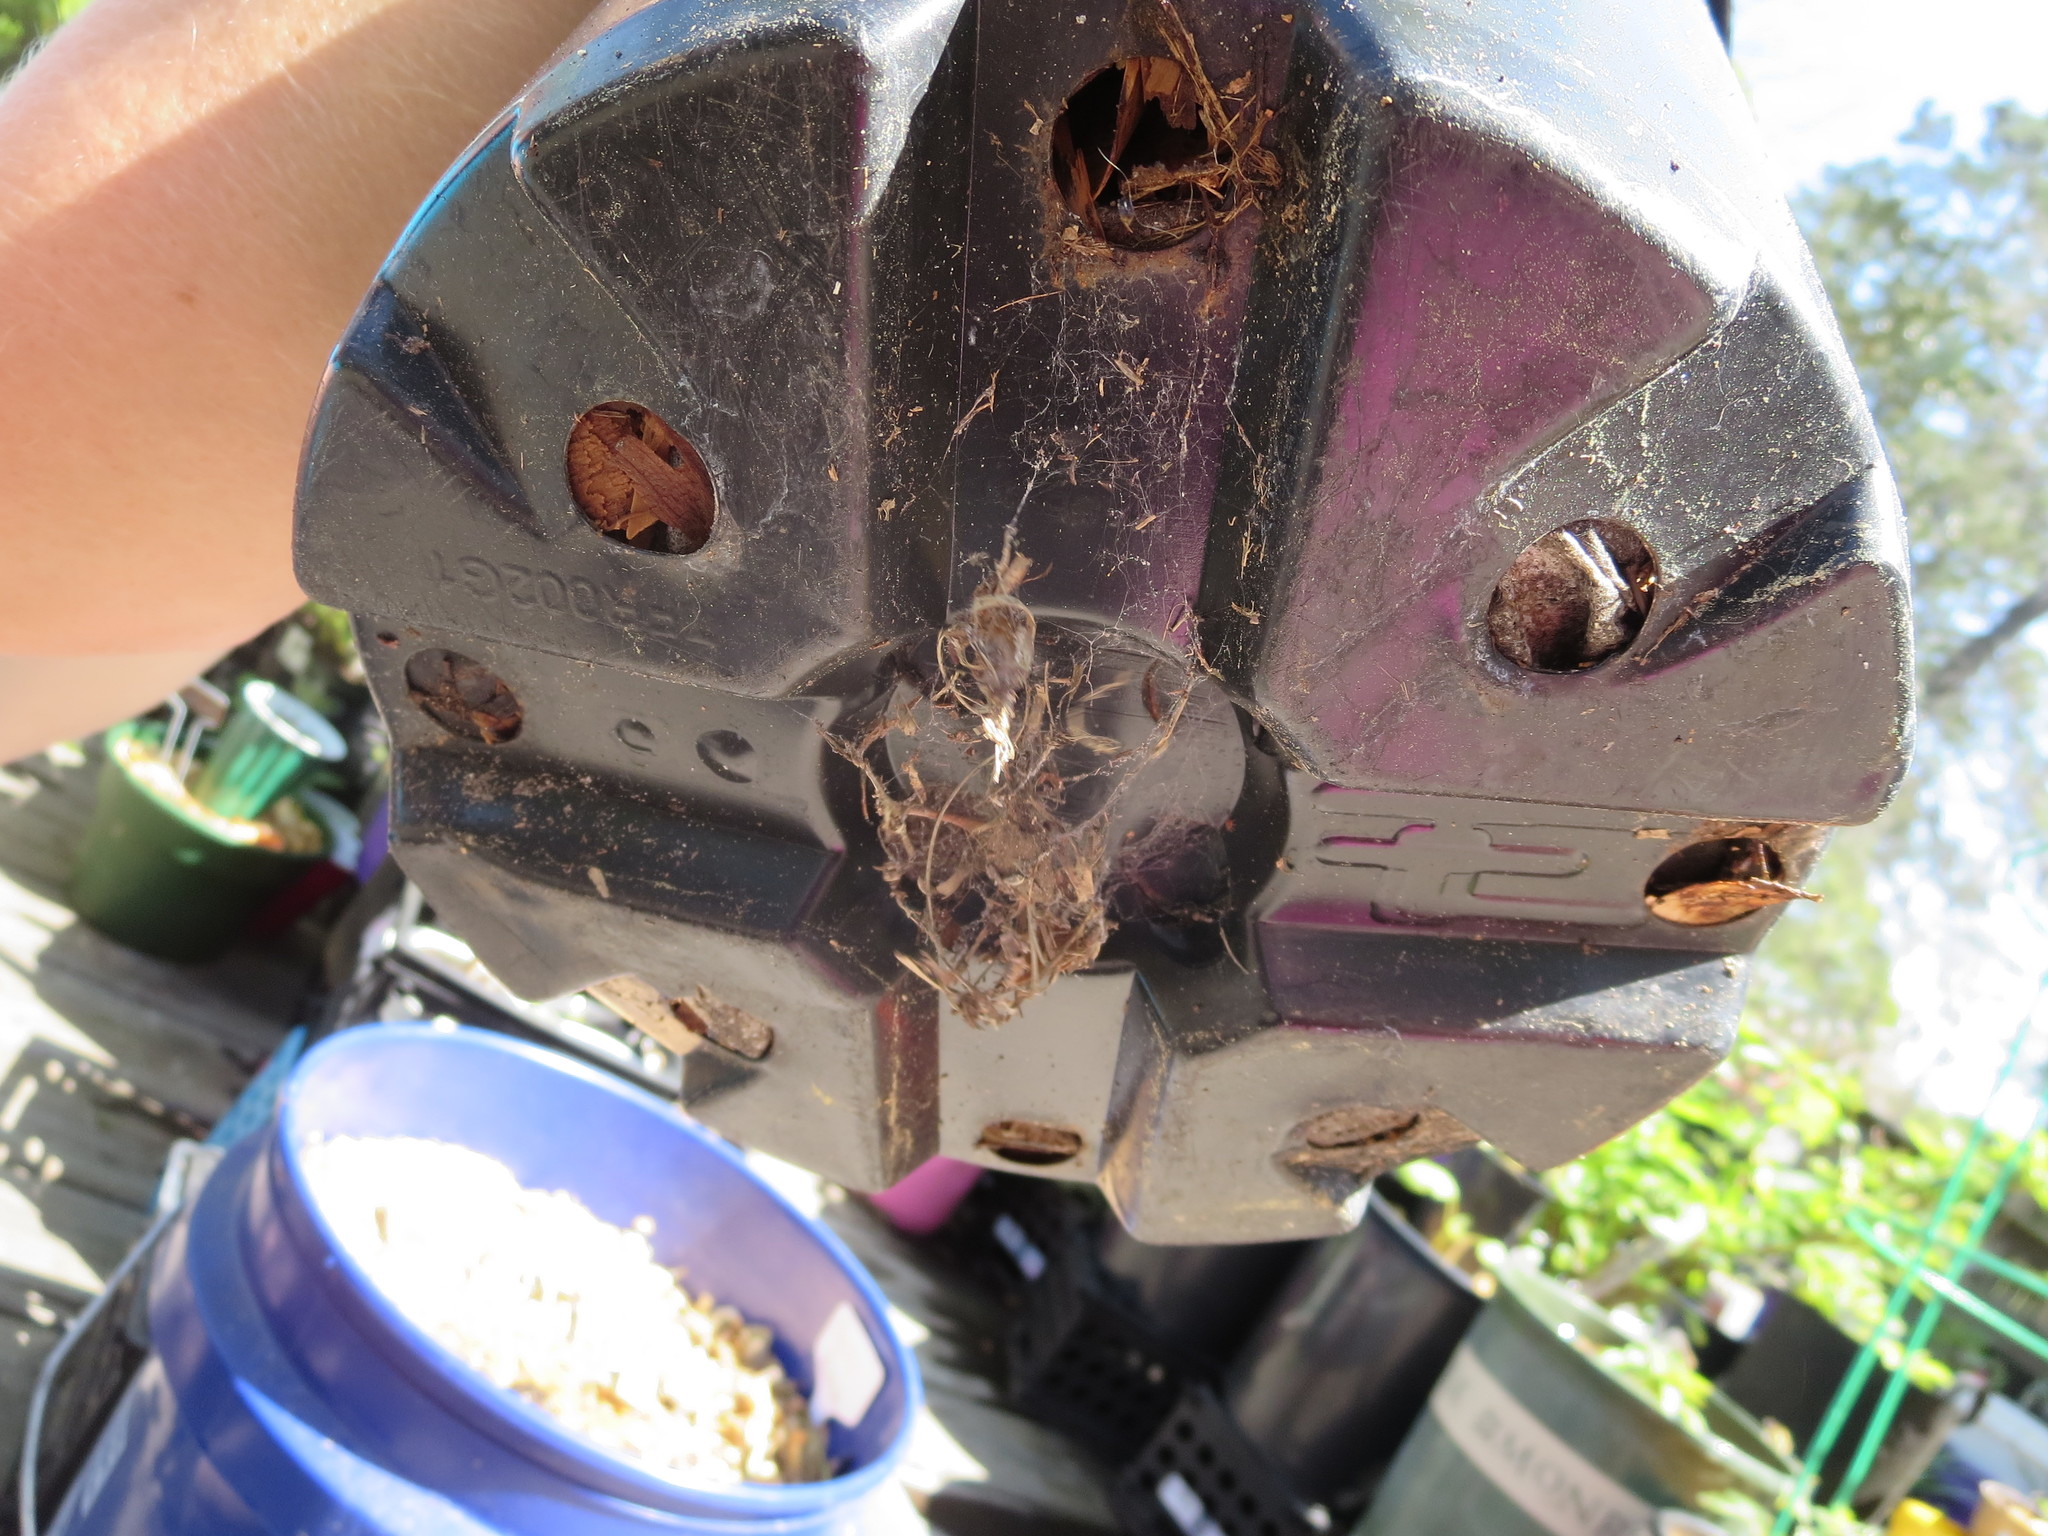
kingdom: Animalia
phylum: Chordata
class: Amphibia
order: Anura
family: Hylidae
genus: Dryophytes
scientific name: Dryophytes squirellus
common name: Squirrel treefrog
